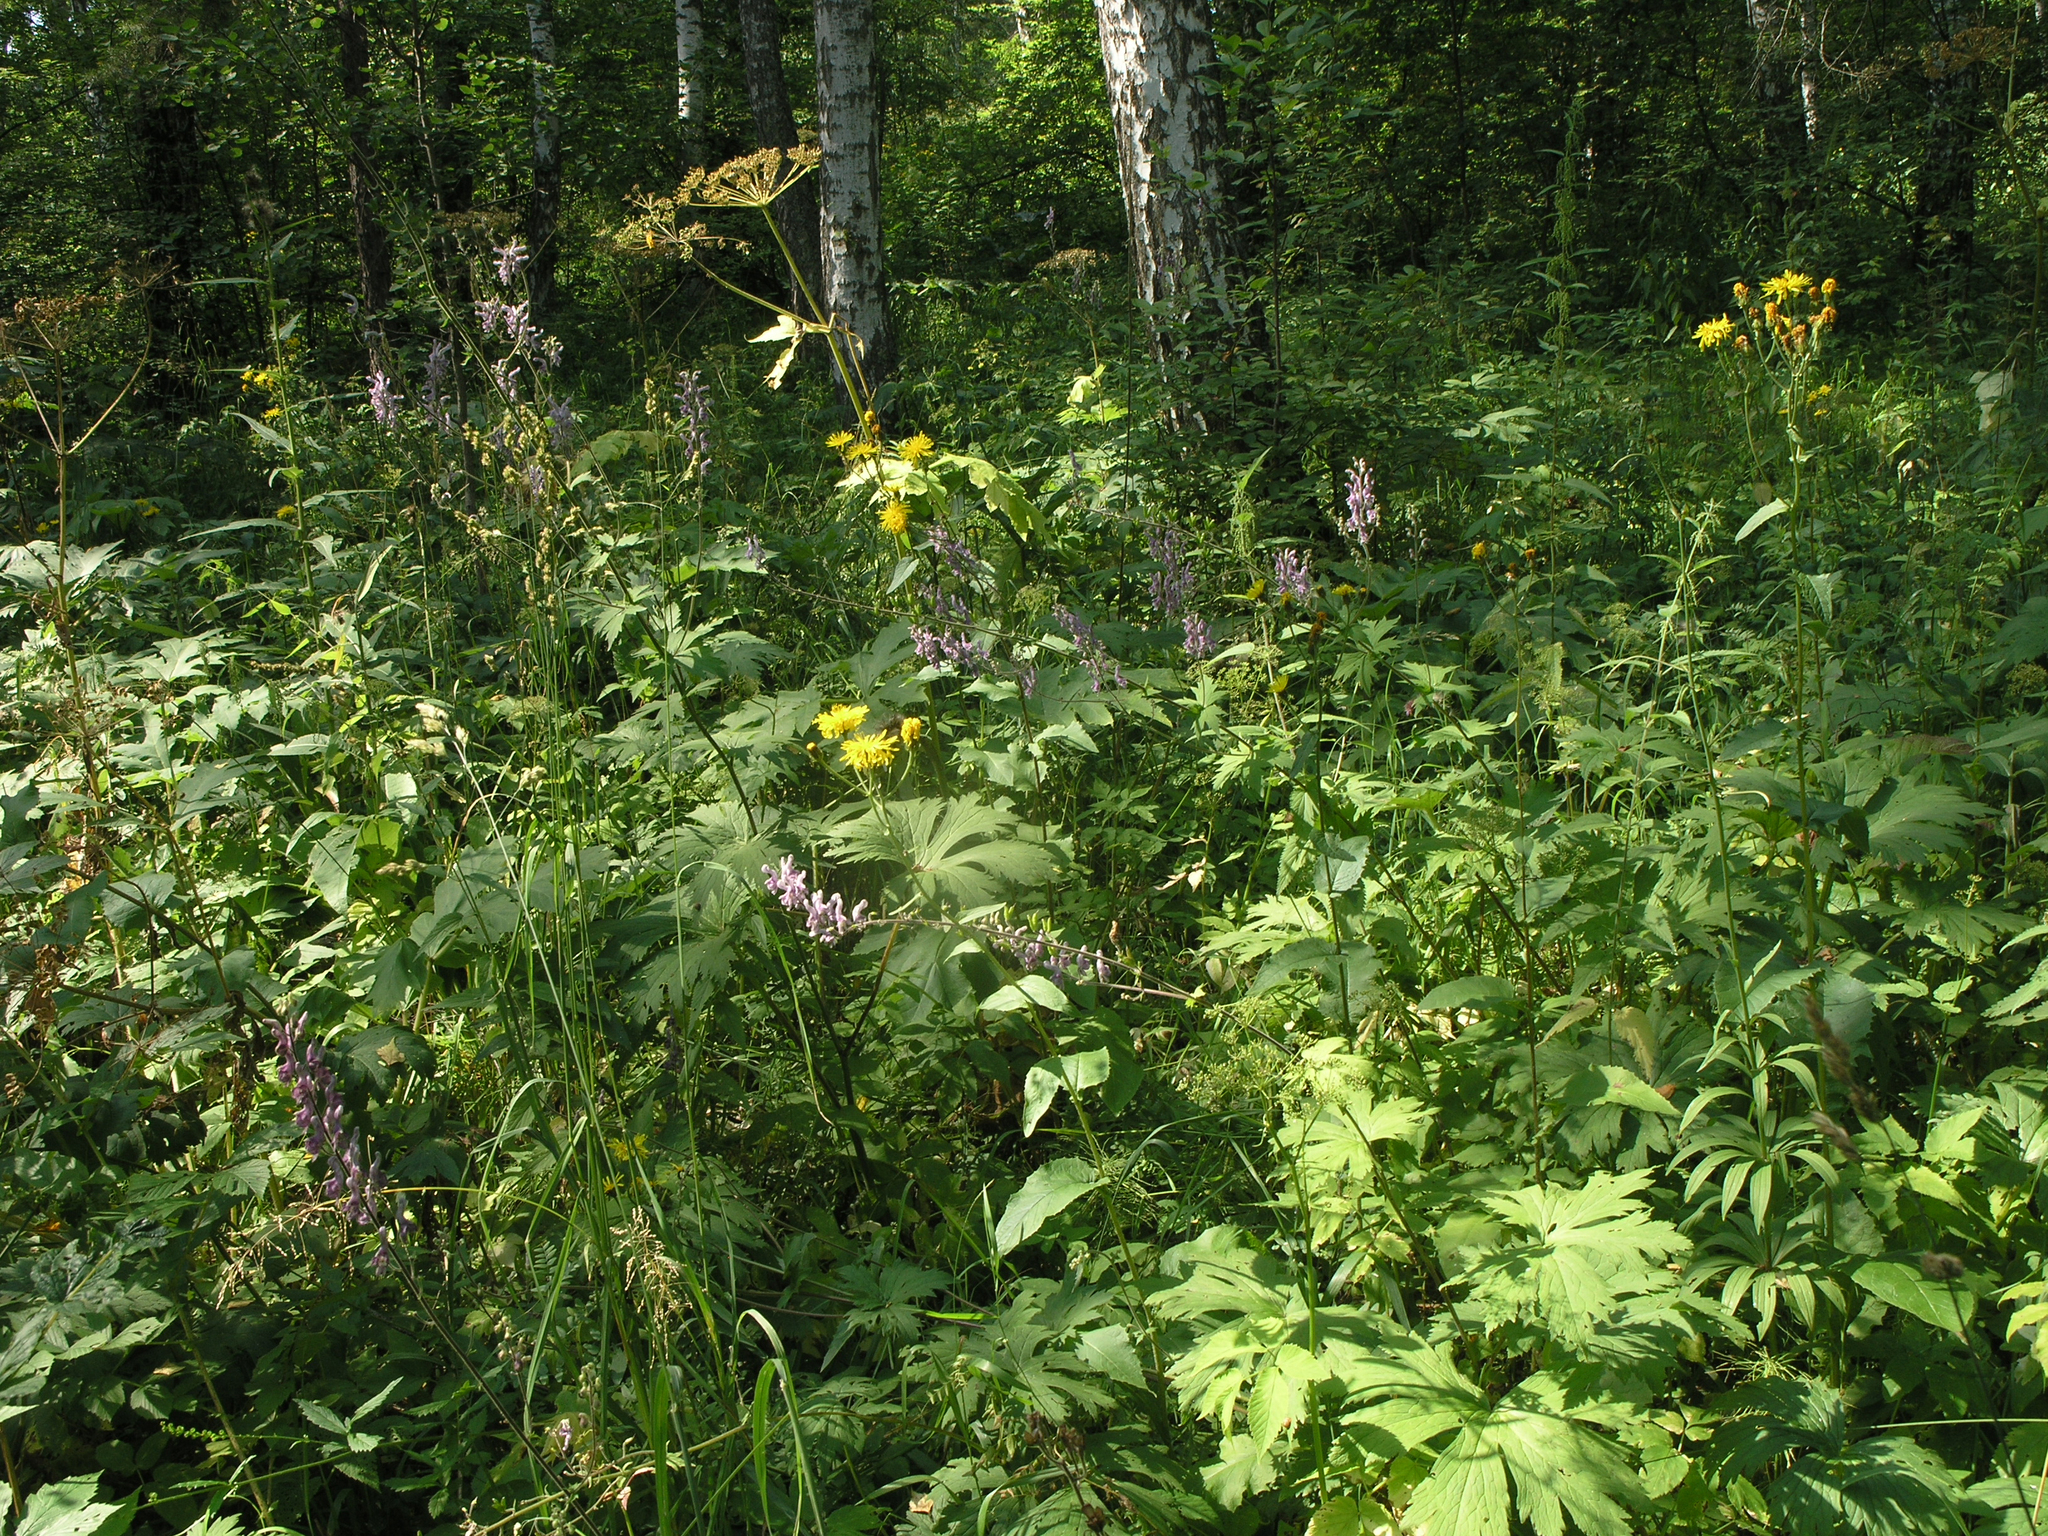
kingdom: Plantae
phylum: Tracheophyta
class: Magnoliopsida
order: Asterales
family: Asteraceae
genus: Crepis
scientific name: Crepis sibirica
